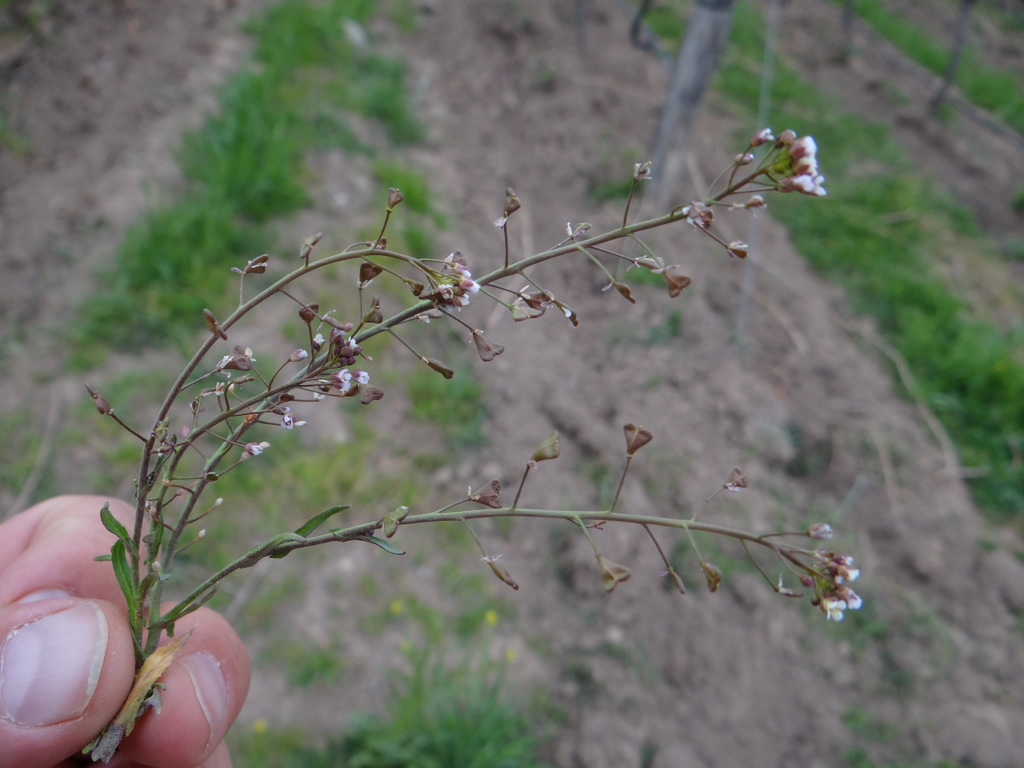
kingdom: Plantae
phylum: Tracheophyta
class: Magnoliopsida
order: Brassicales
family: Brassicaceae
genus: Capsella
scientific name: Capsella bursa-pastoris
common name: Shepherd's purse
